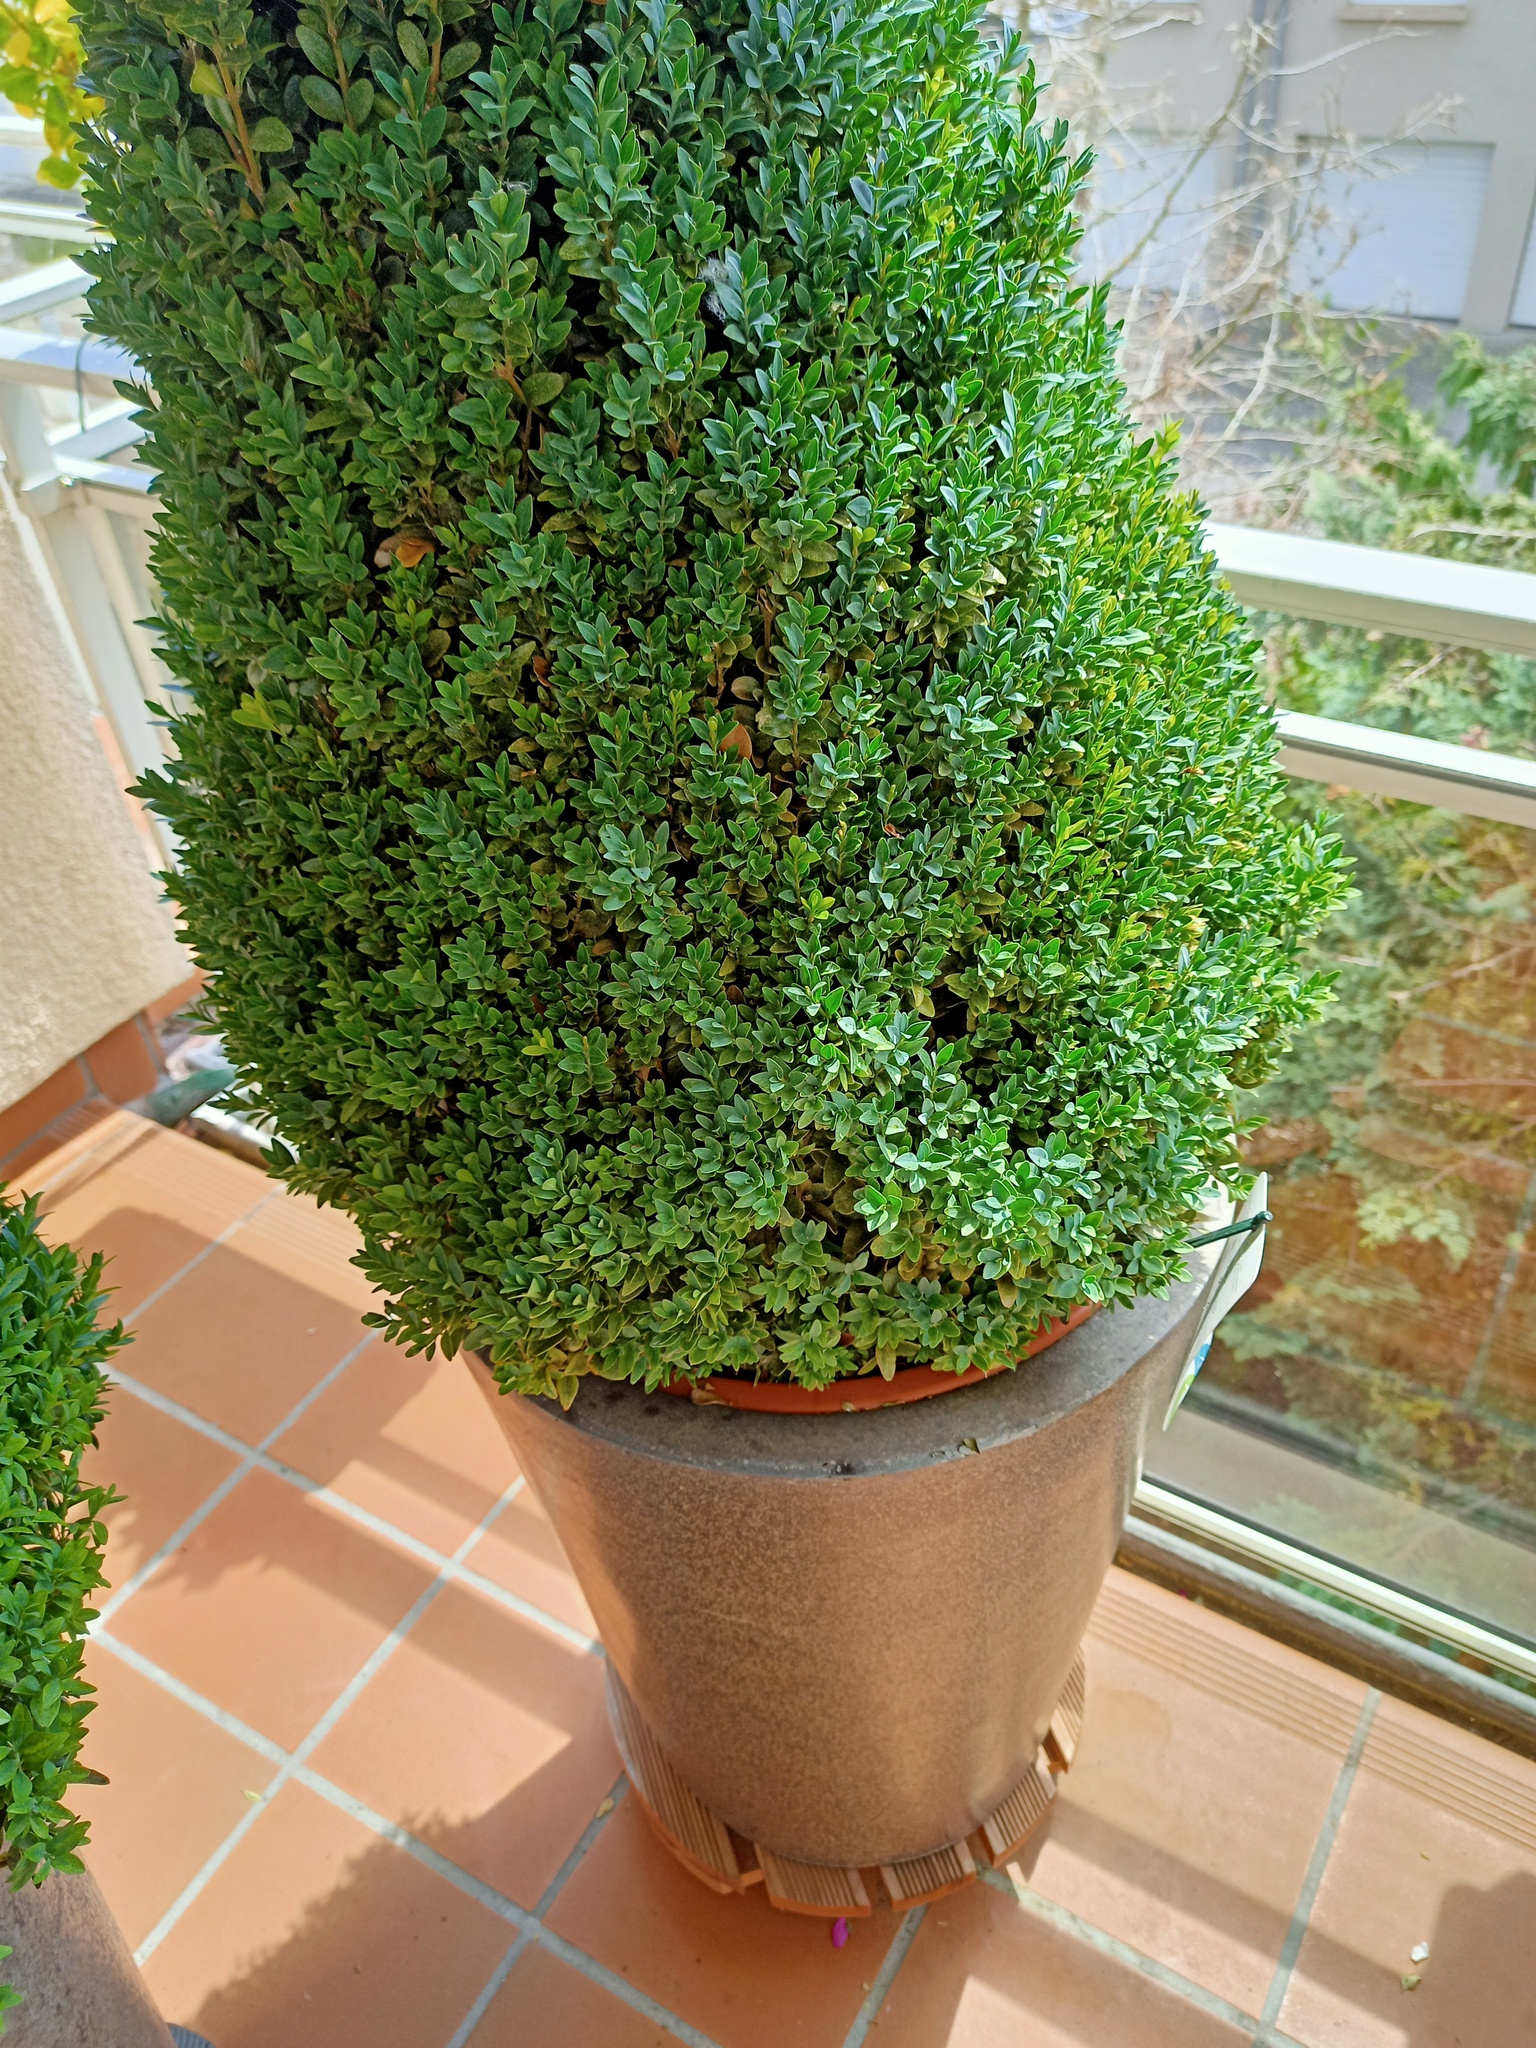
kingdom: Animalia
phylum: Arthropoda
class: Insecta
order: Hymenoptera
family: Vespidae
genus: Vespula
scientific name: Vespula germanica
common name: German wasp
